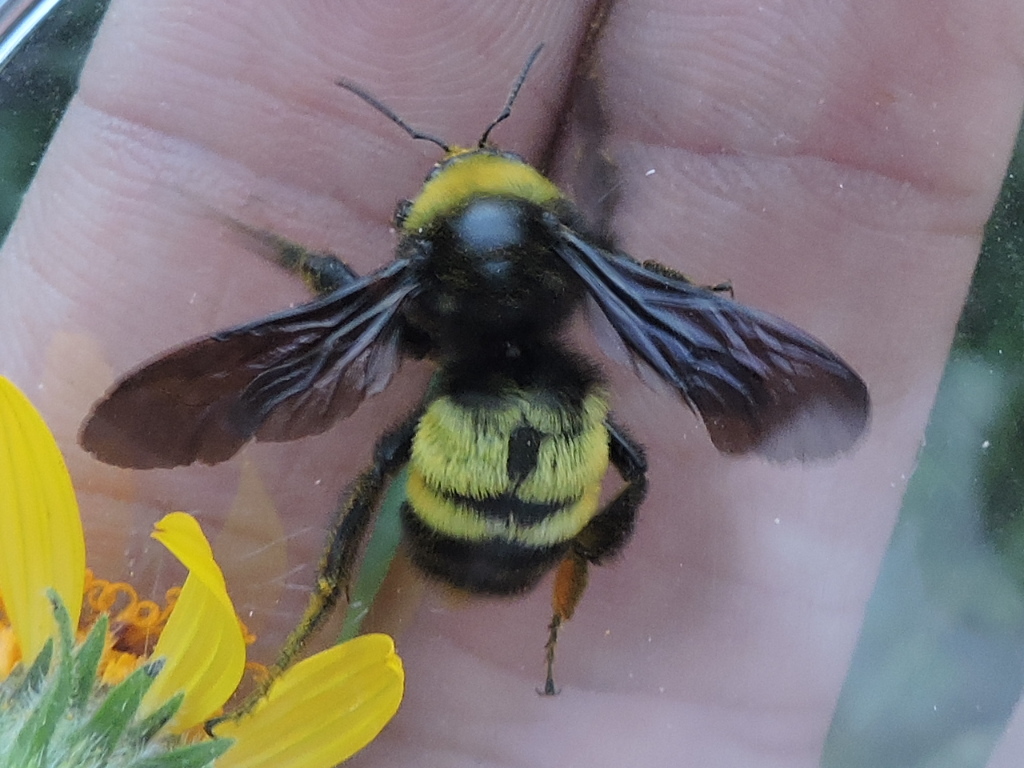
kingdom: Animalia
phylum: Arthropoda
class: Insecta
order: Hymenoptera
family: Apidae
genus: Bombus
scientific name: Bombus pensylvanicus
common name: Bumble bee
